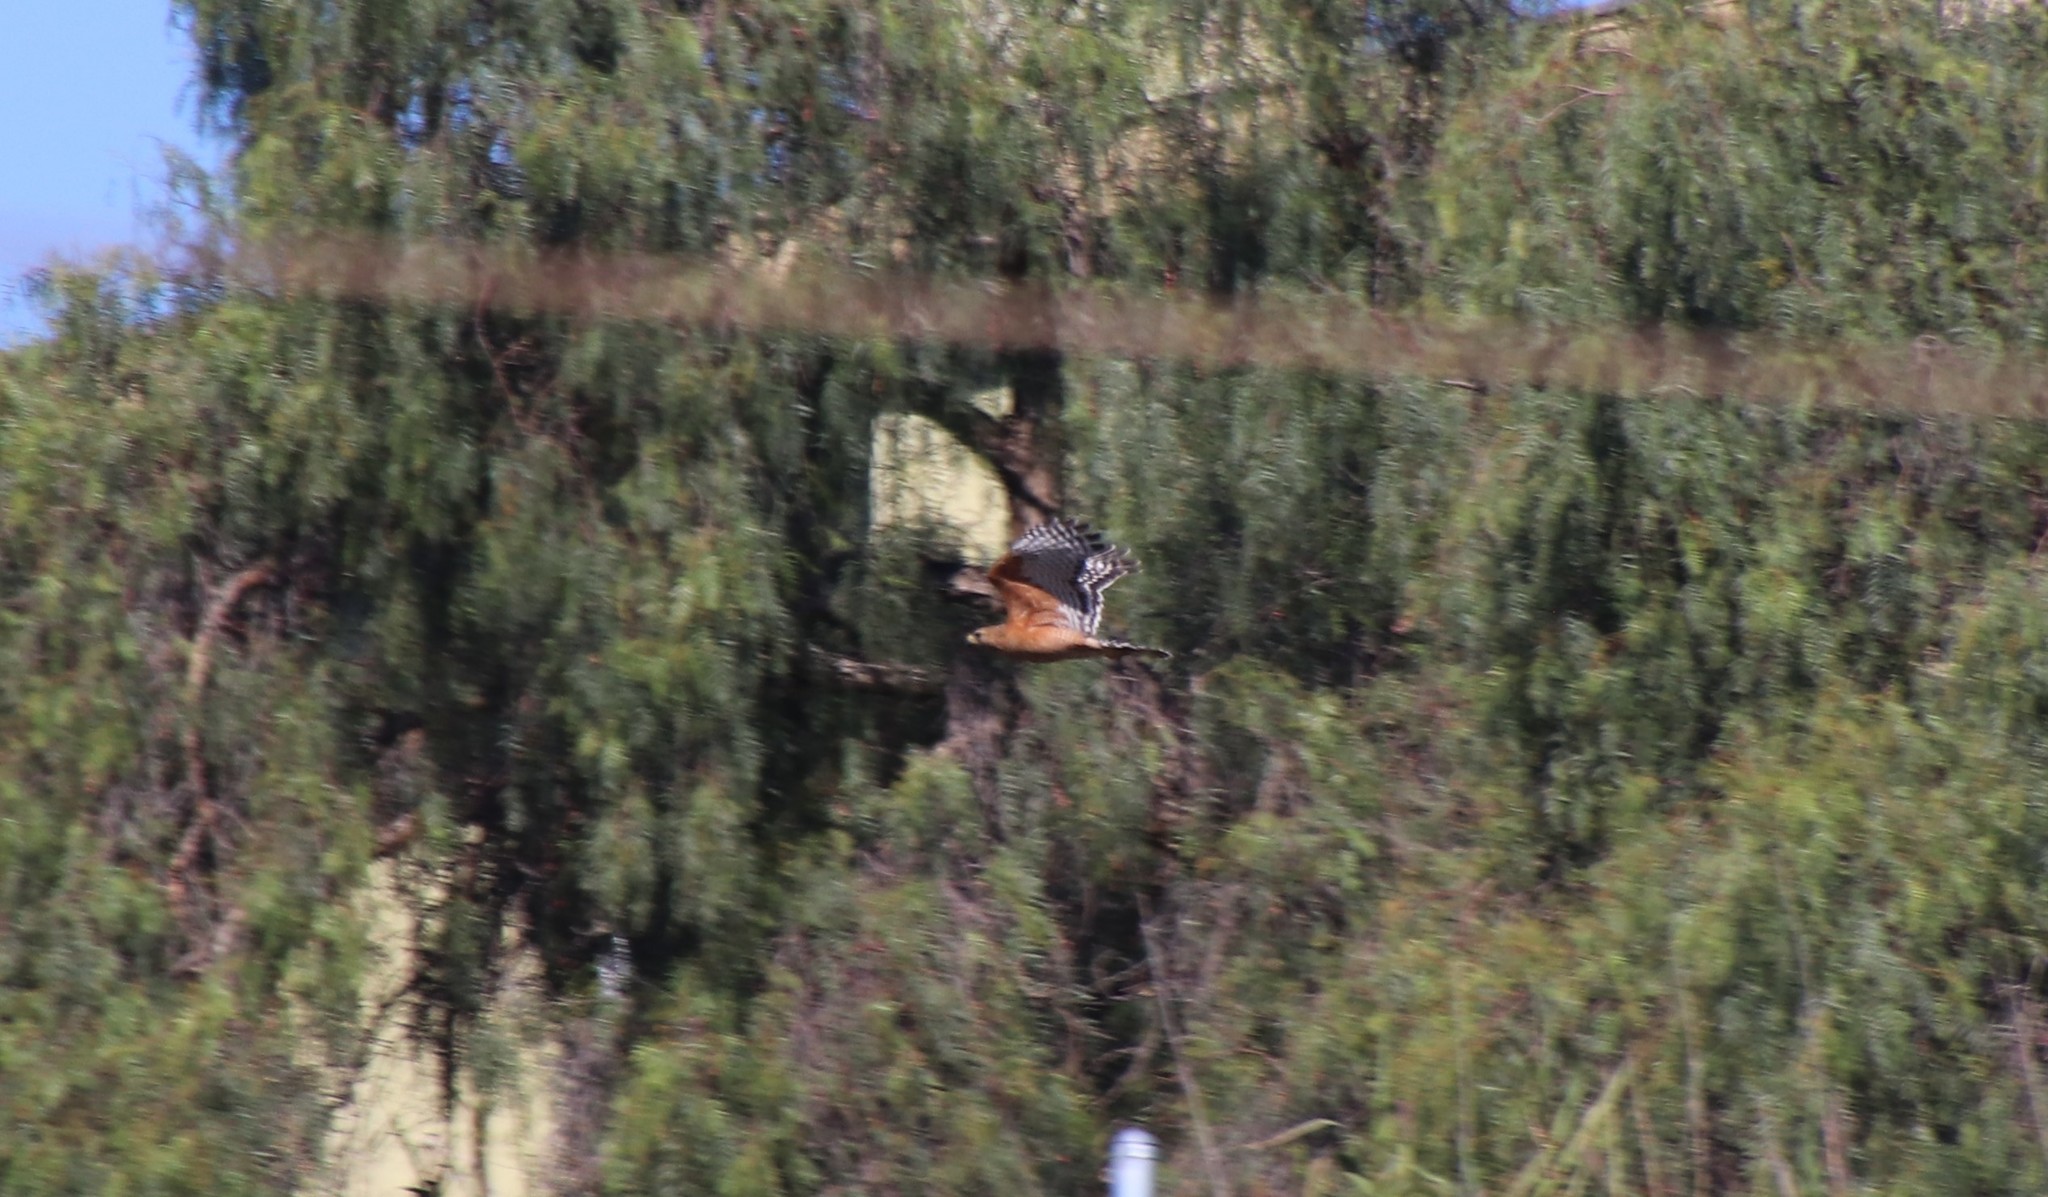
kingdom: Animalia
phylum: Chordata
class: Aves
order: Accipitriformes
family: Accipitridae
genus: Buteo
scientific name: Buteo lineatus
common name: Red-shouldered hawk
